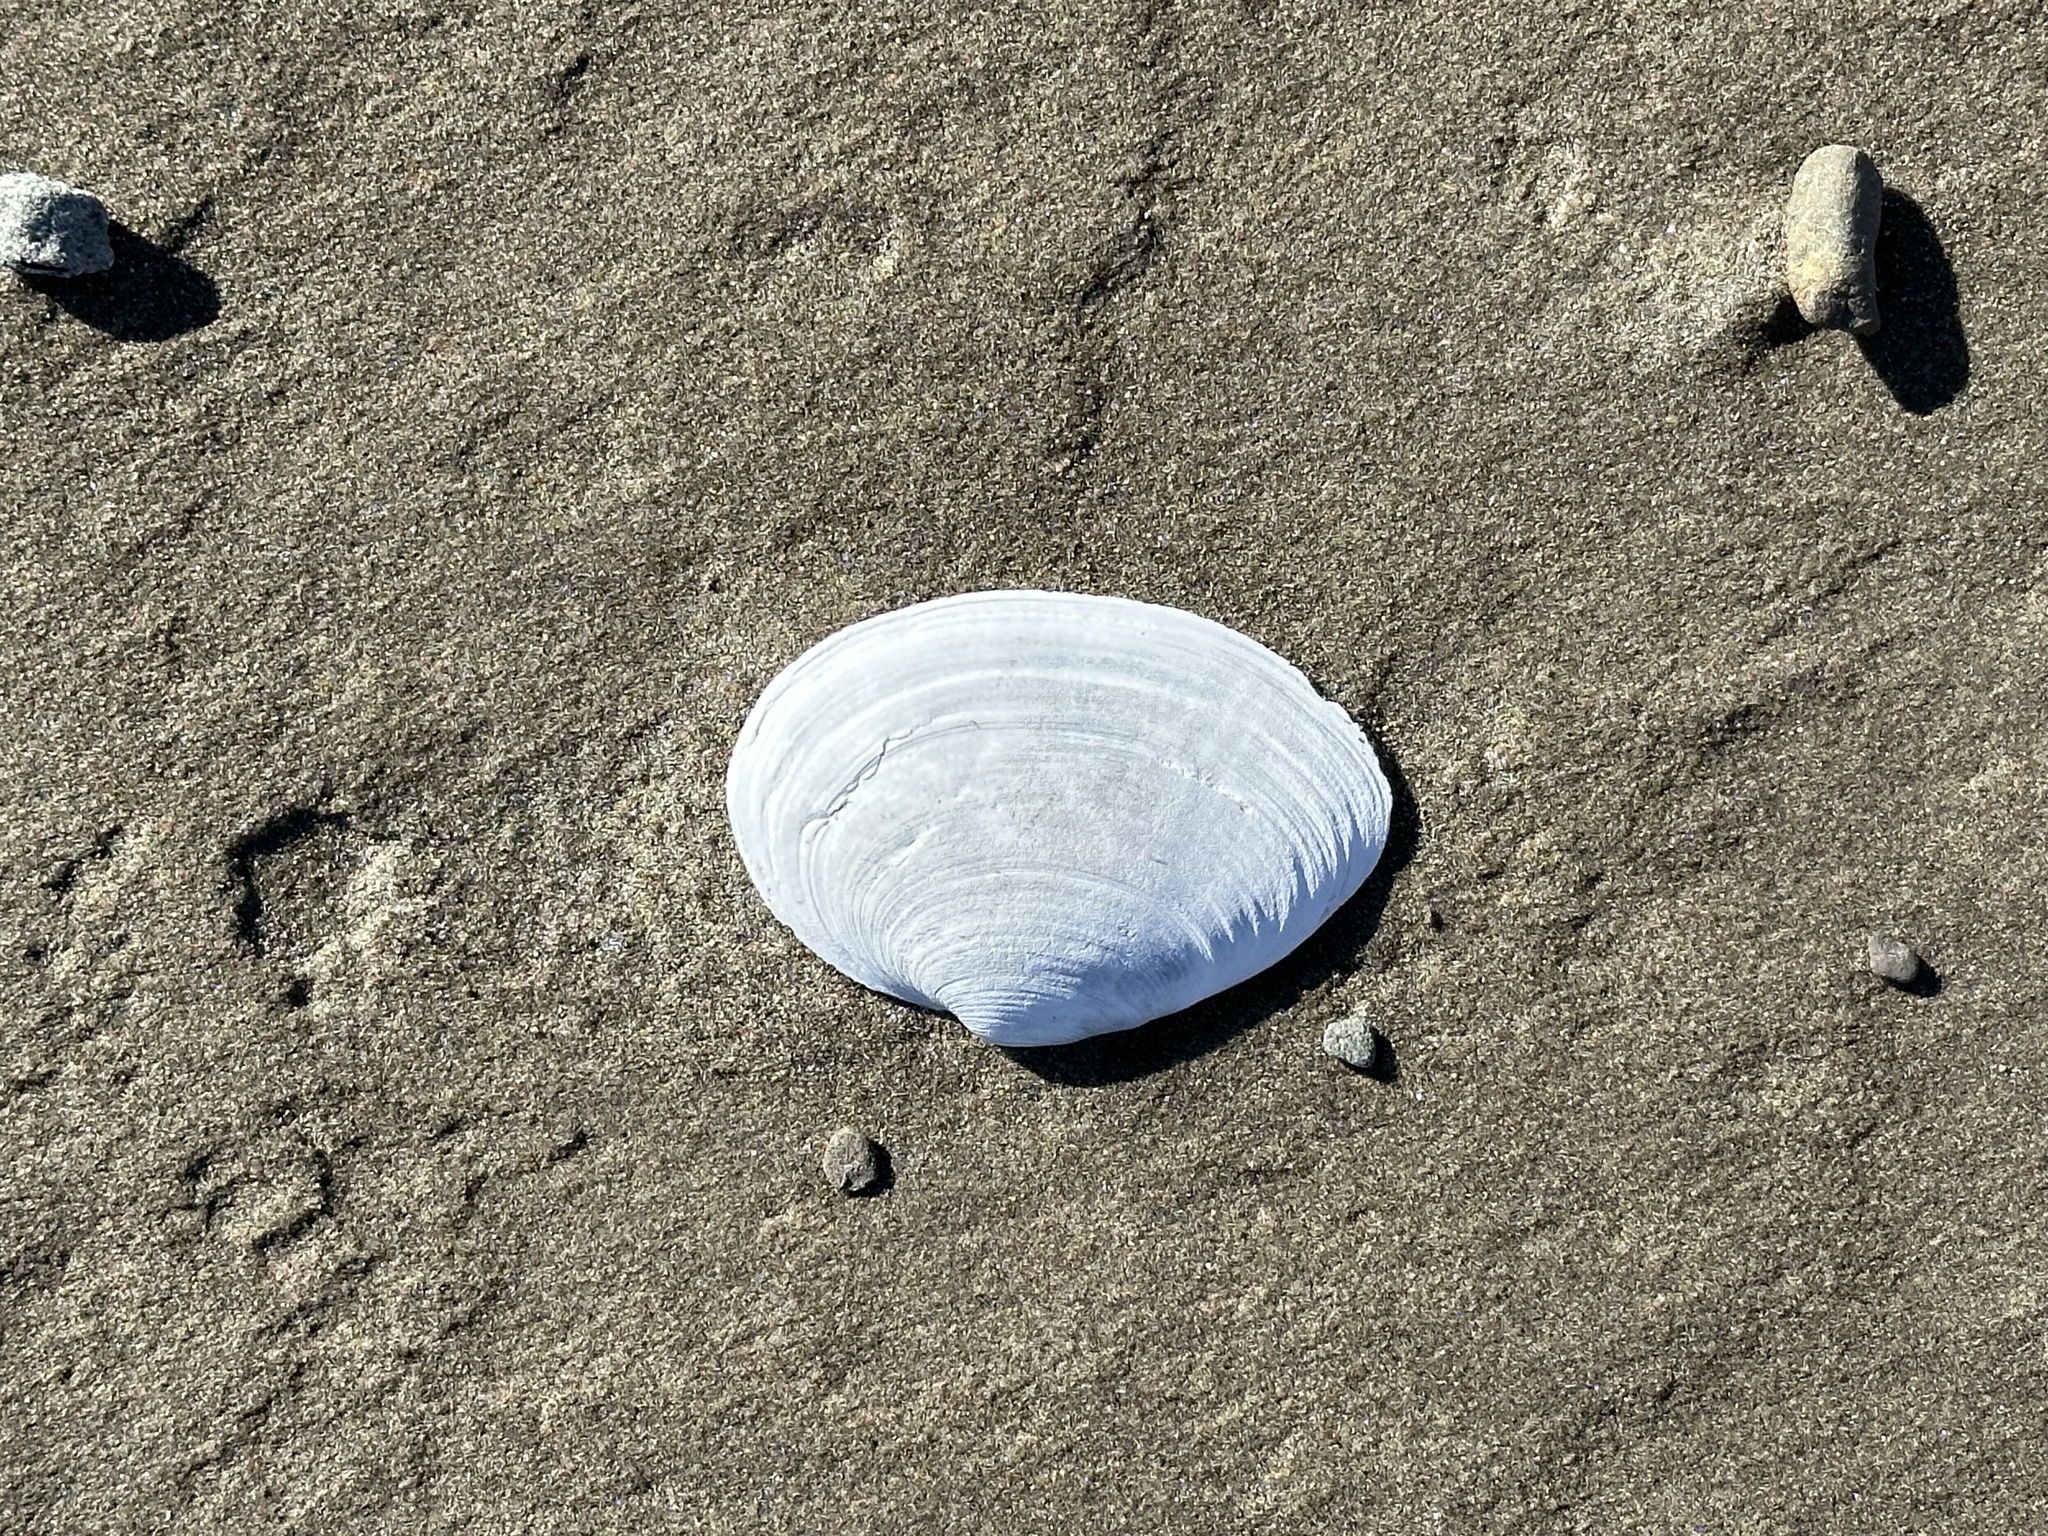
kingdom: Animalia
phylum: Mollusca
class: Bivalvia
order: Myida
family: Myidae
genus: Mya
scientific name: Mya arenaria
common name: Soft-shelled clam
